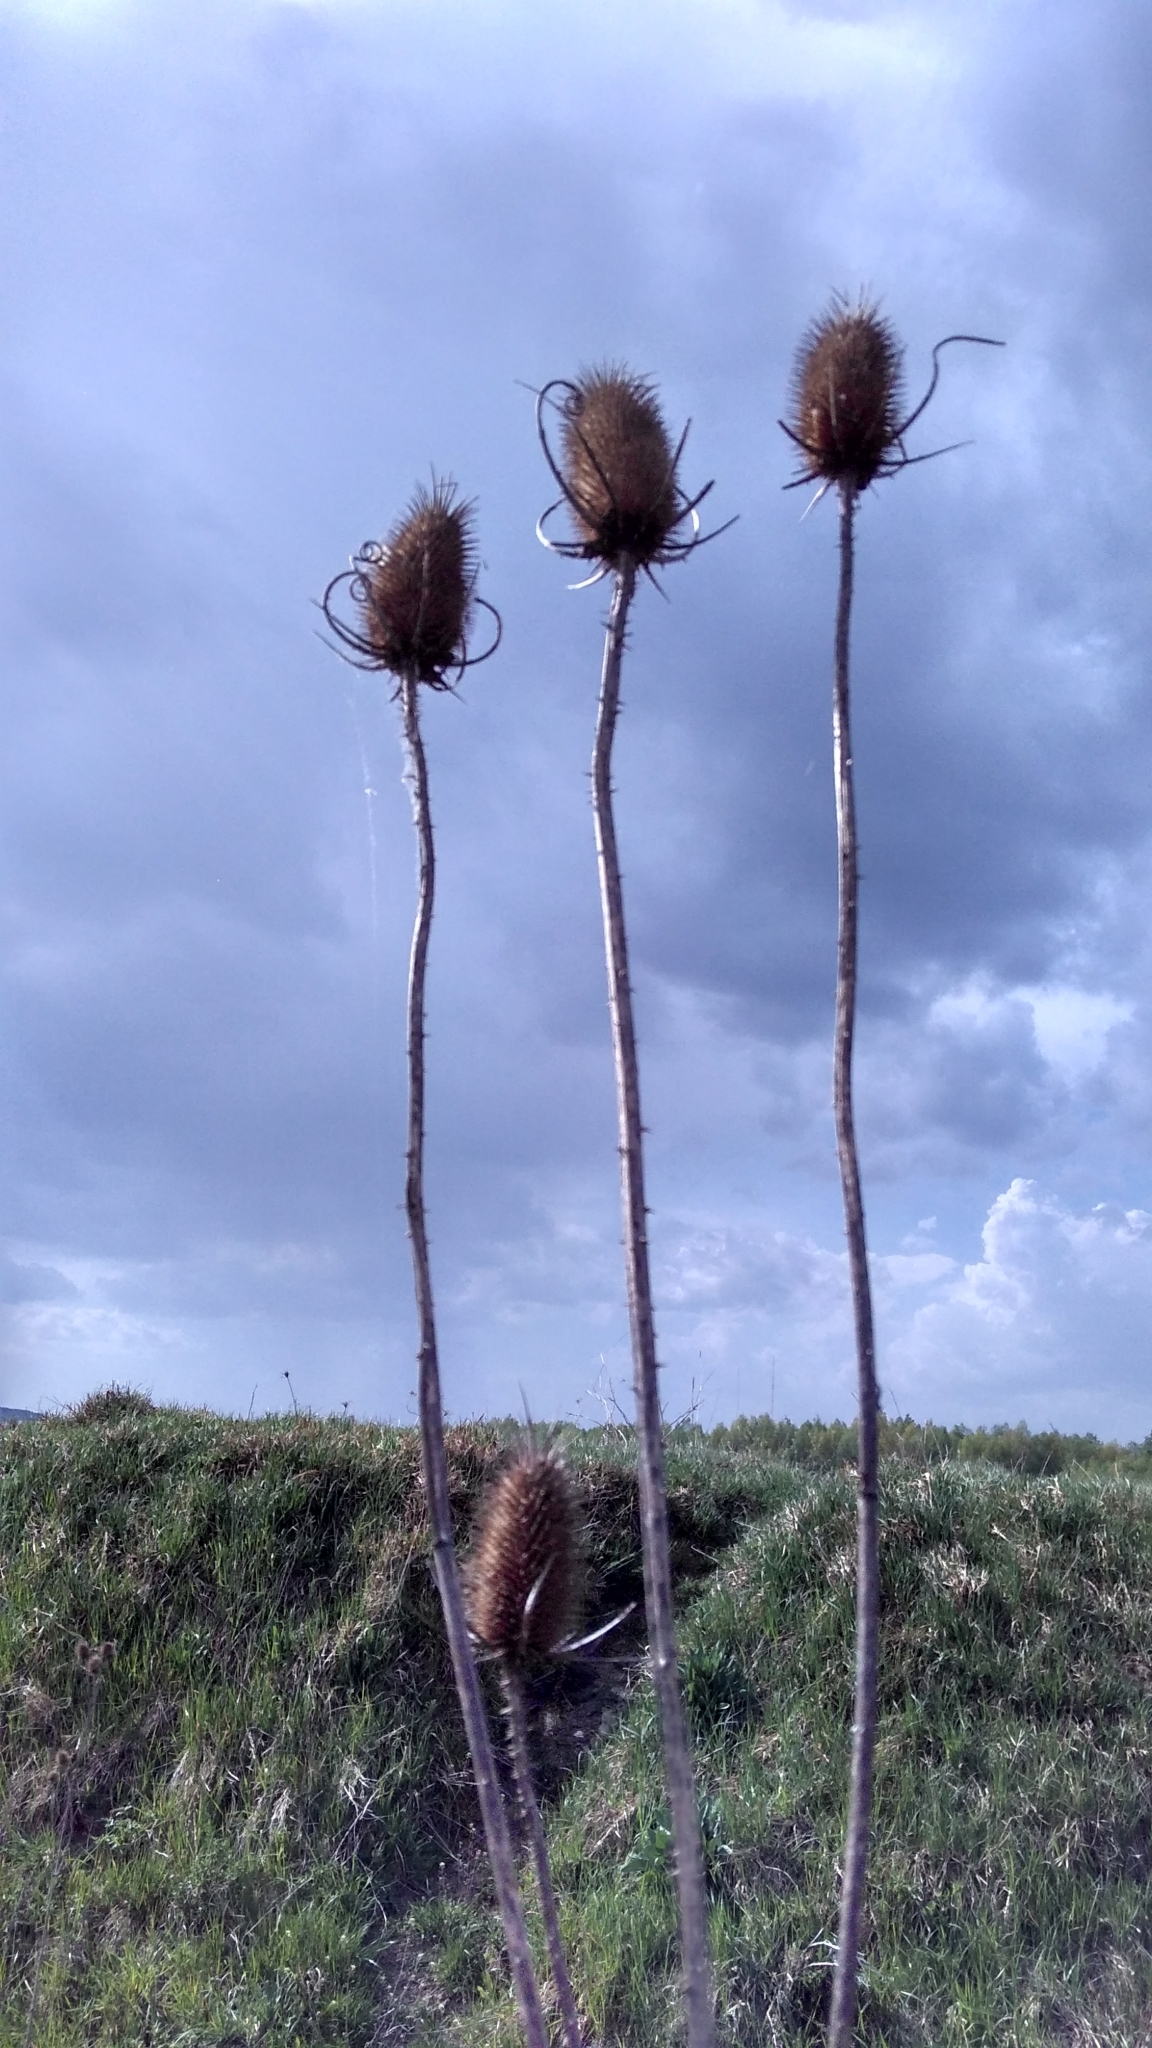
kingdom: Plantae
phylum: Tracheophyta
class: Magnoliopsida
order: Dipsacales
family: Caprifoliaceae
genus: Dipsacus
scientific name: Dipsacus fullonum
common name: Teasel
